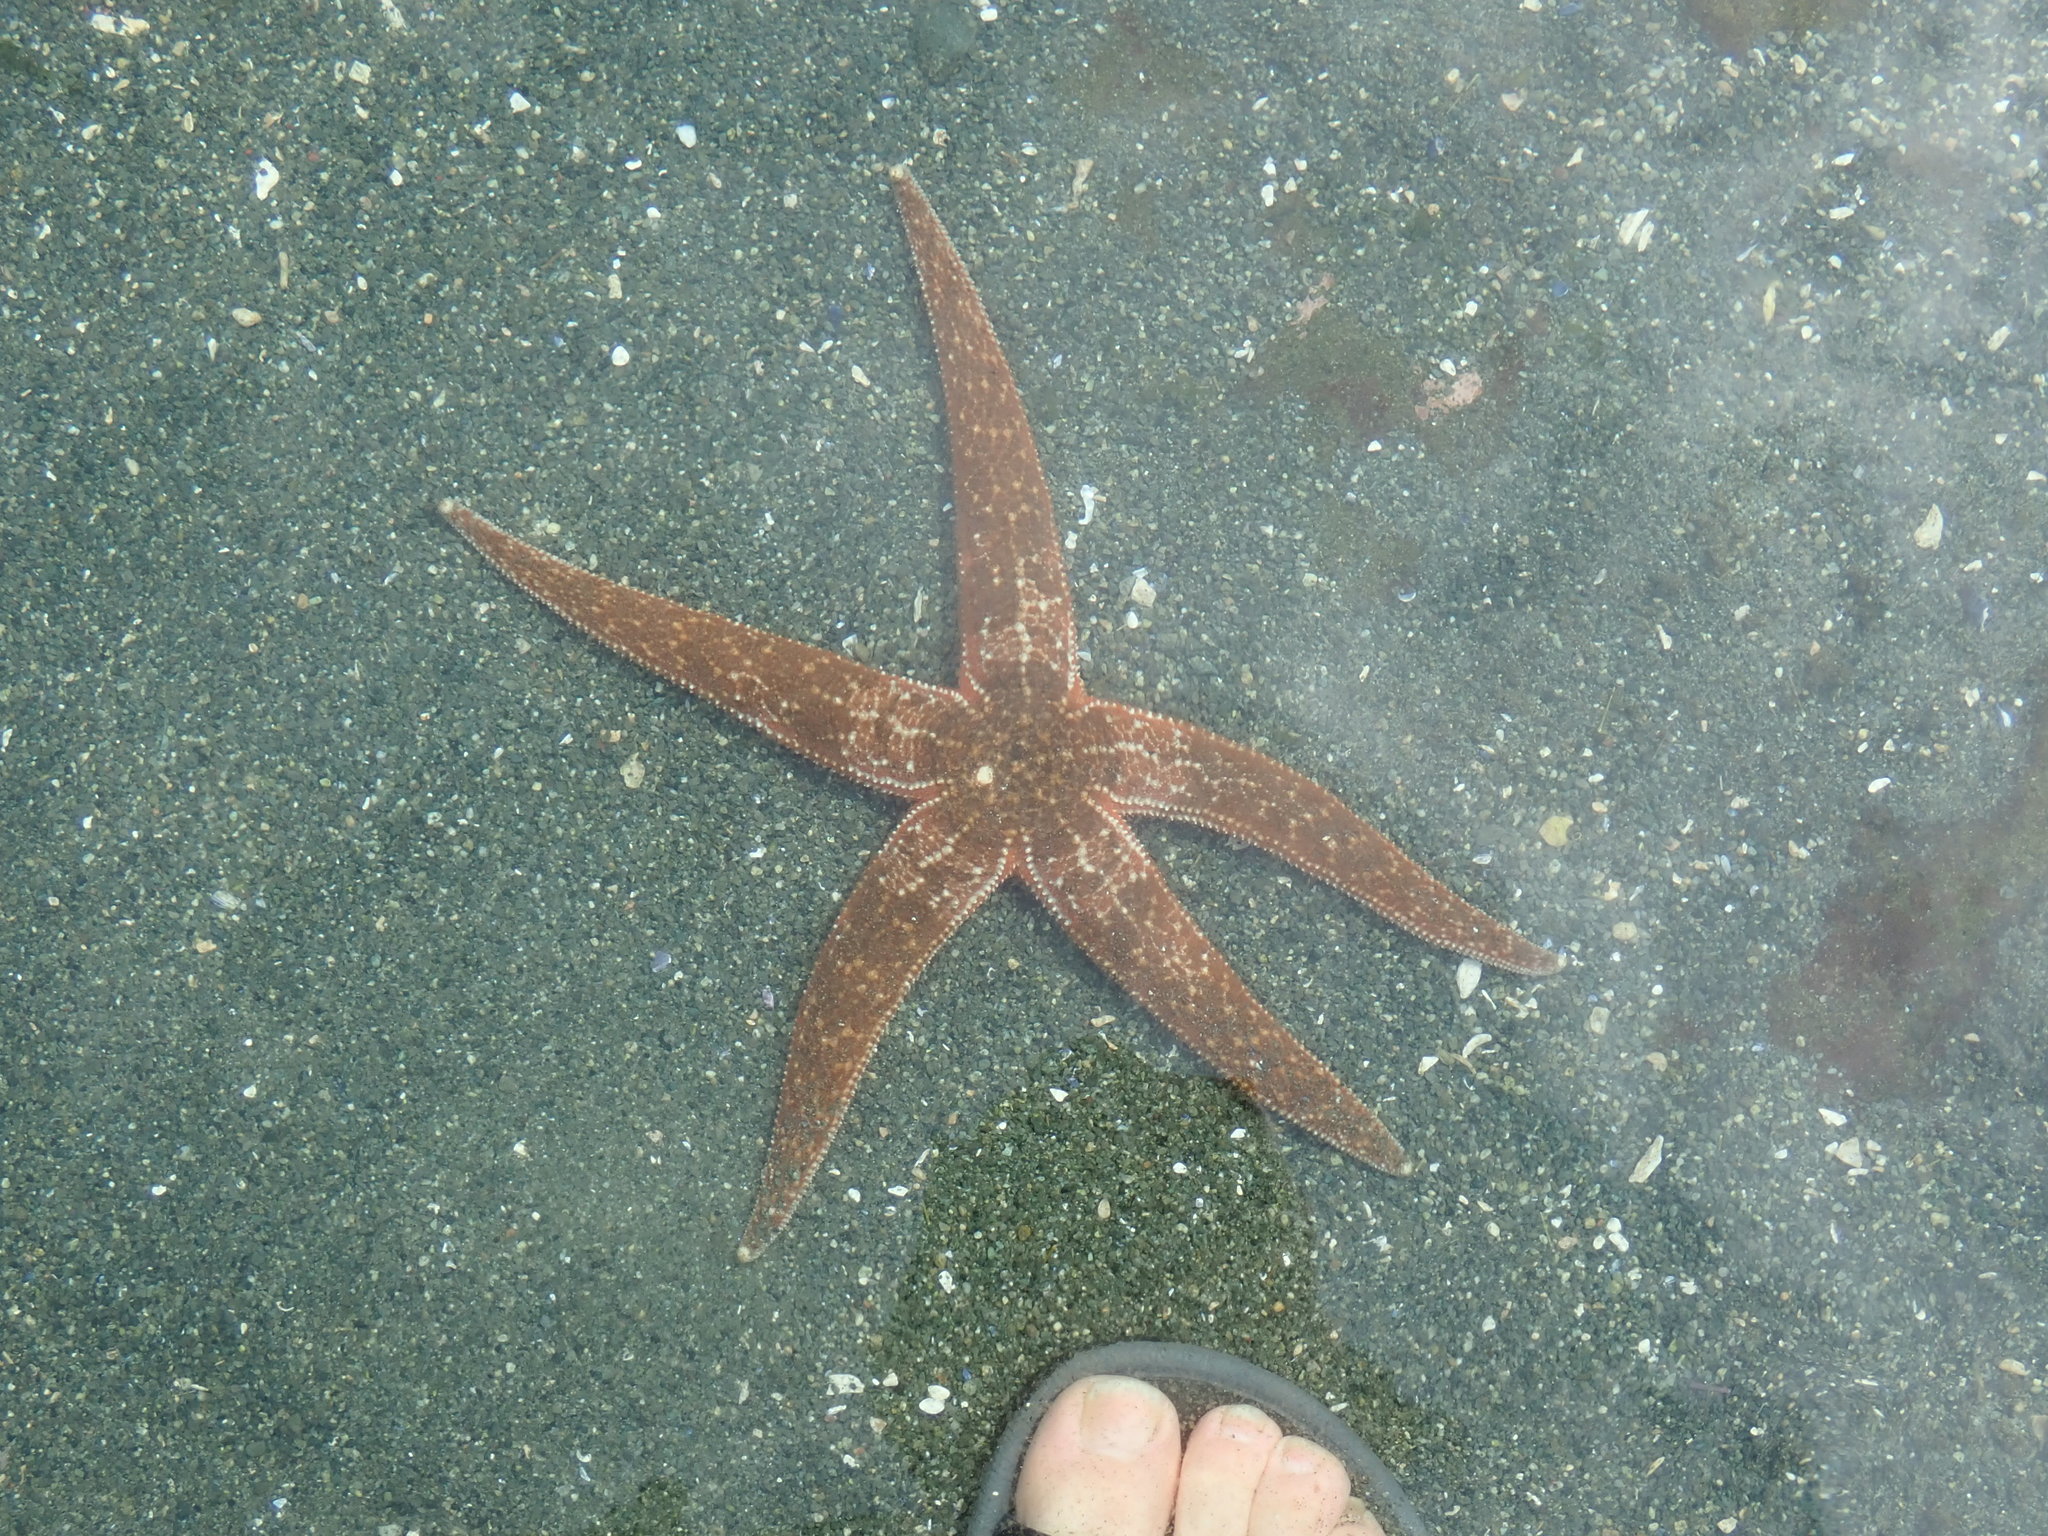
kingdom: Animalia
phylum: Echinodermata
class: Asteroidea
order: Forcipulatida
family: Asteriidae
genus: Evasterias
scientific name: Evasterias troschelii
